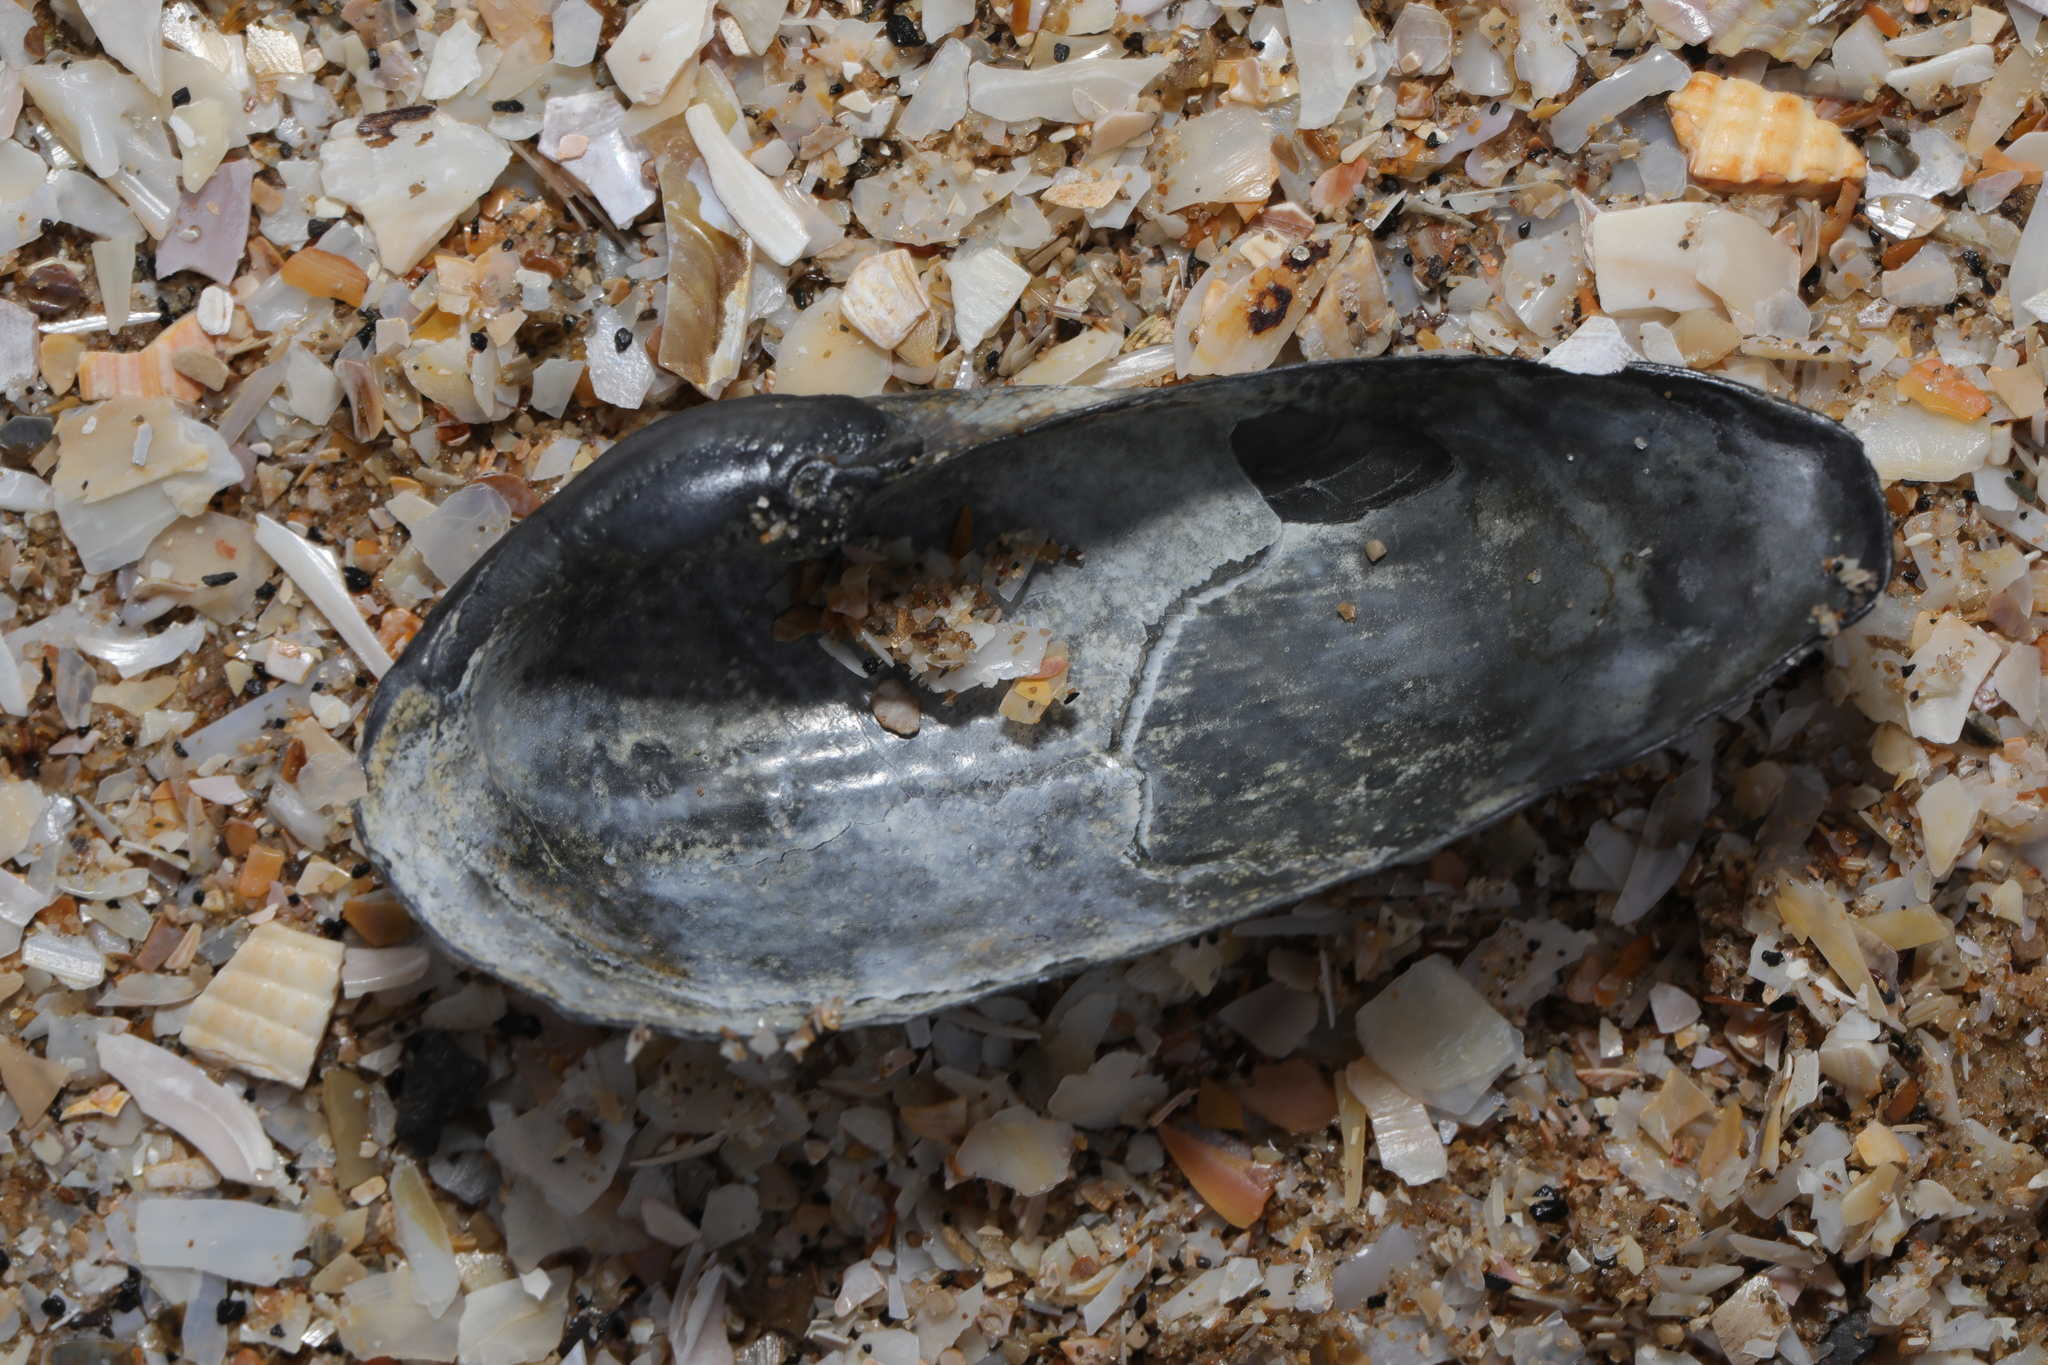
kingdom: Animalia
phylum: Mollusca
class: Bivalvia
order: Myida
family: Pholadidae
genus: Barnea
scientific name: Barnea candida
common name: White piddock
